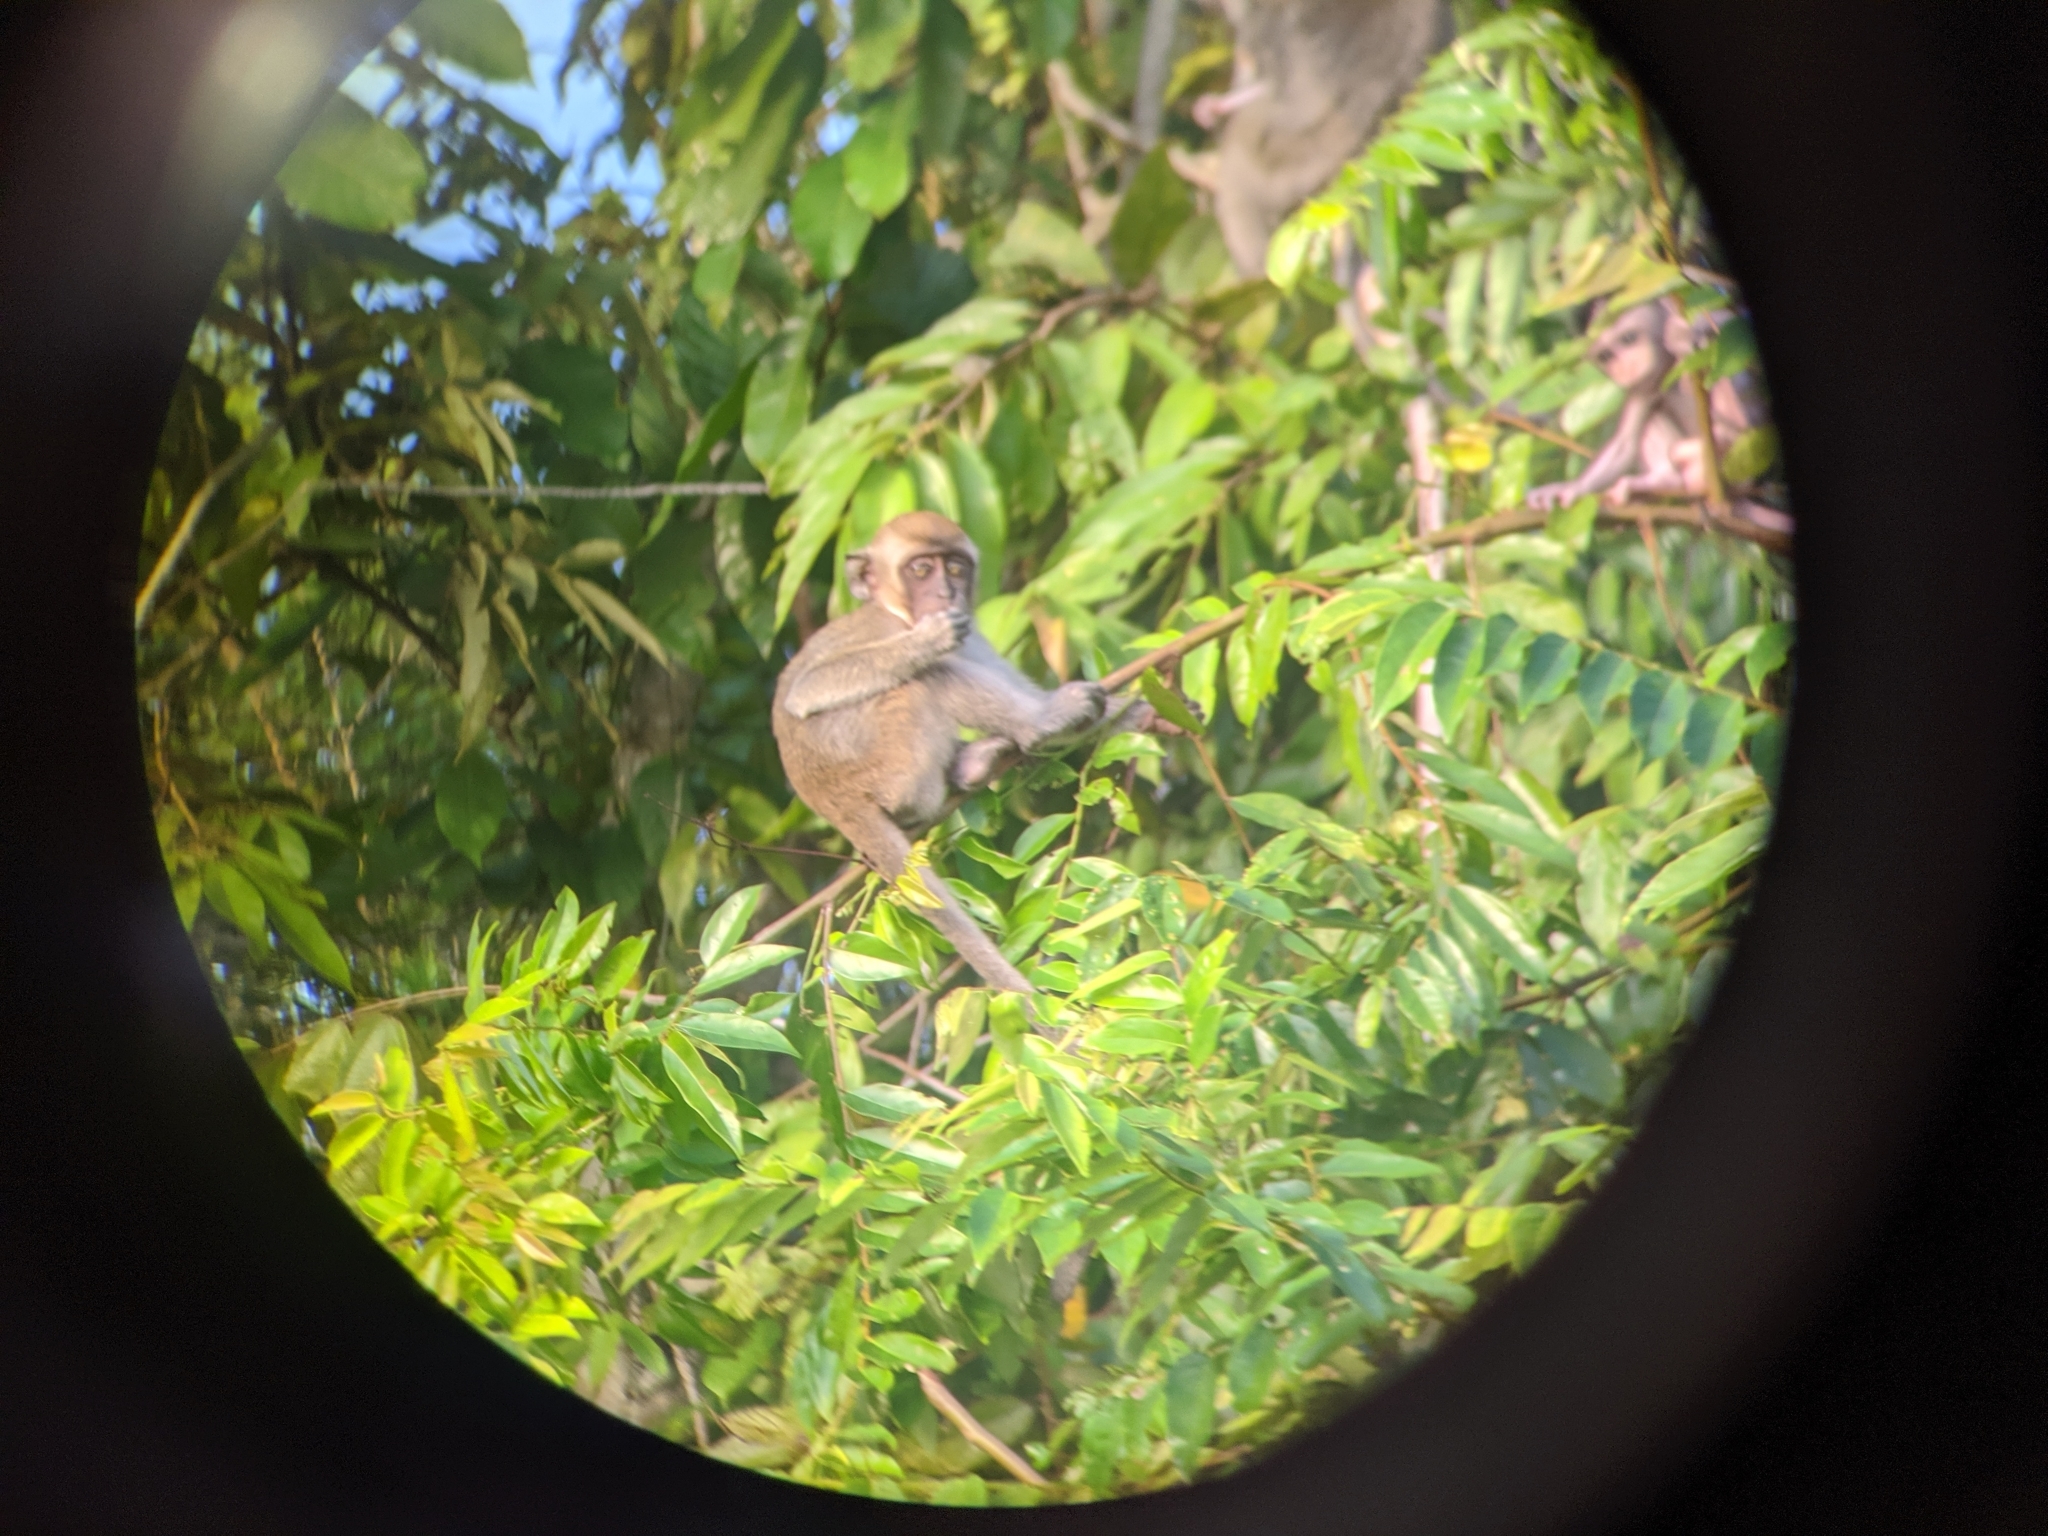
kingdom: Animalia
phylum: Chordata
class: Mammalia
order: Primates
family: Cercopithecidae
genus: Macaca
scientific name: Macaca fascicularis
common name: Crab-eating macaque
